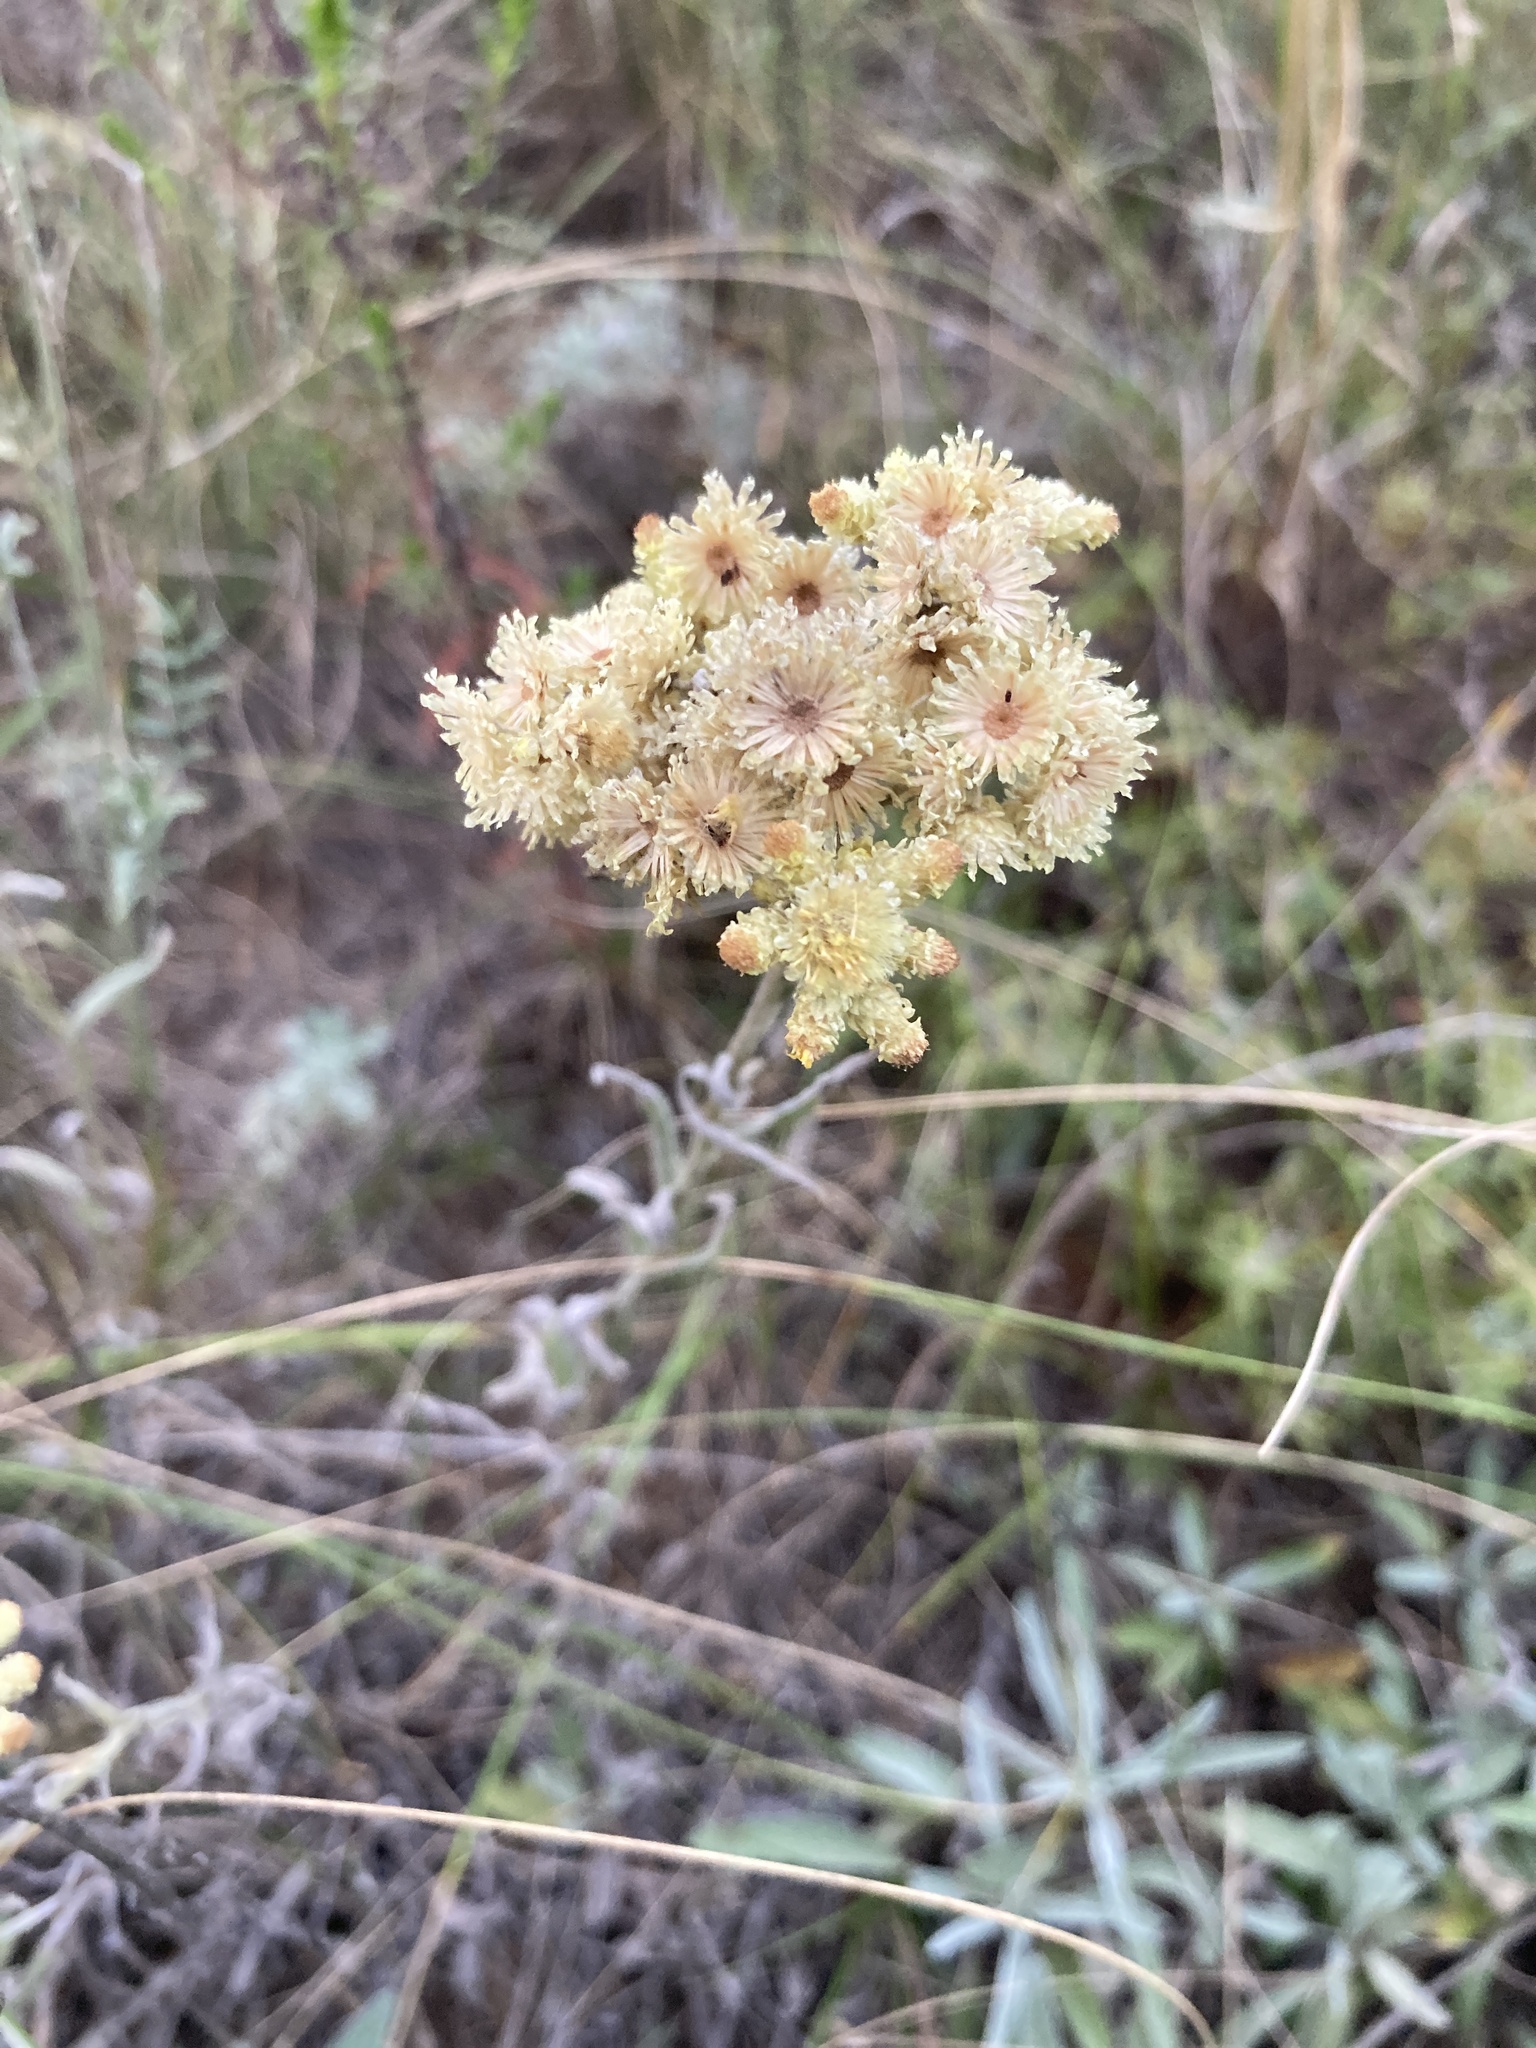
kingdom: Plantae
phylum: Tracheophyta
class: Magnoliopsida
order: Asterales
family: Asteraceae
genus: Helichrysum
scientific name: Helichrysum arenarium
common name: Strawflower
